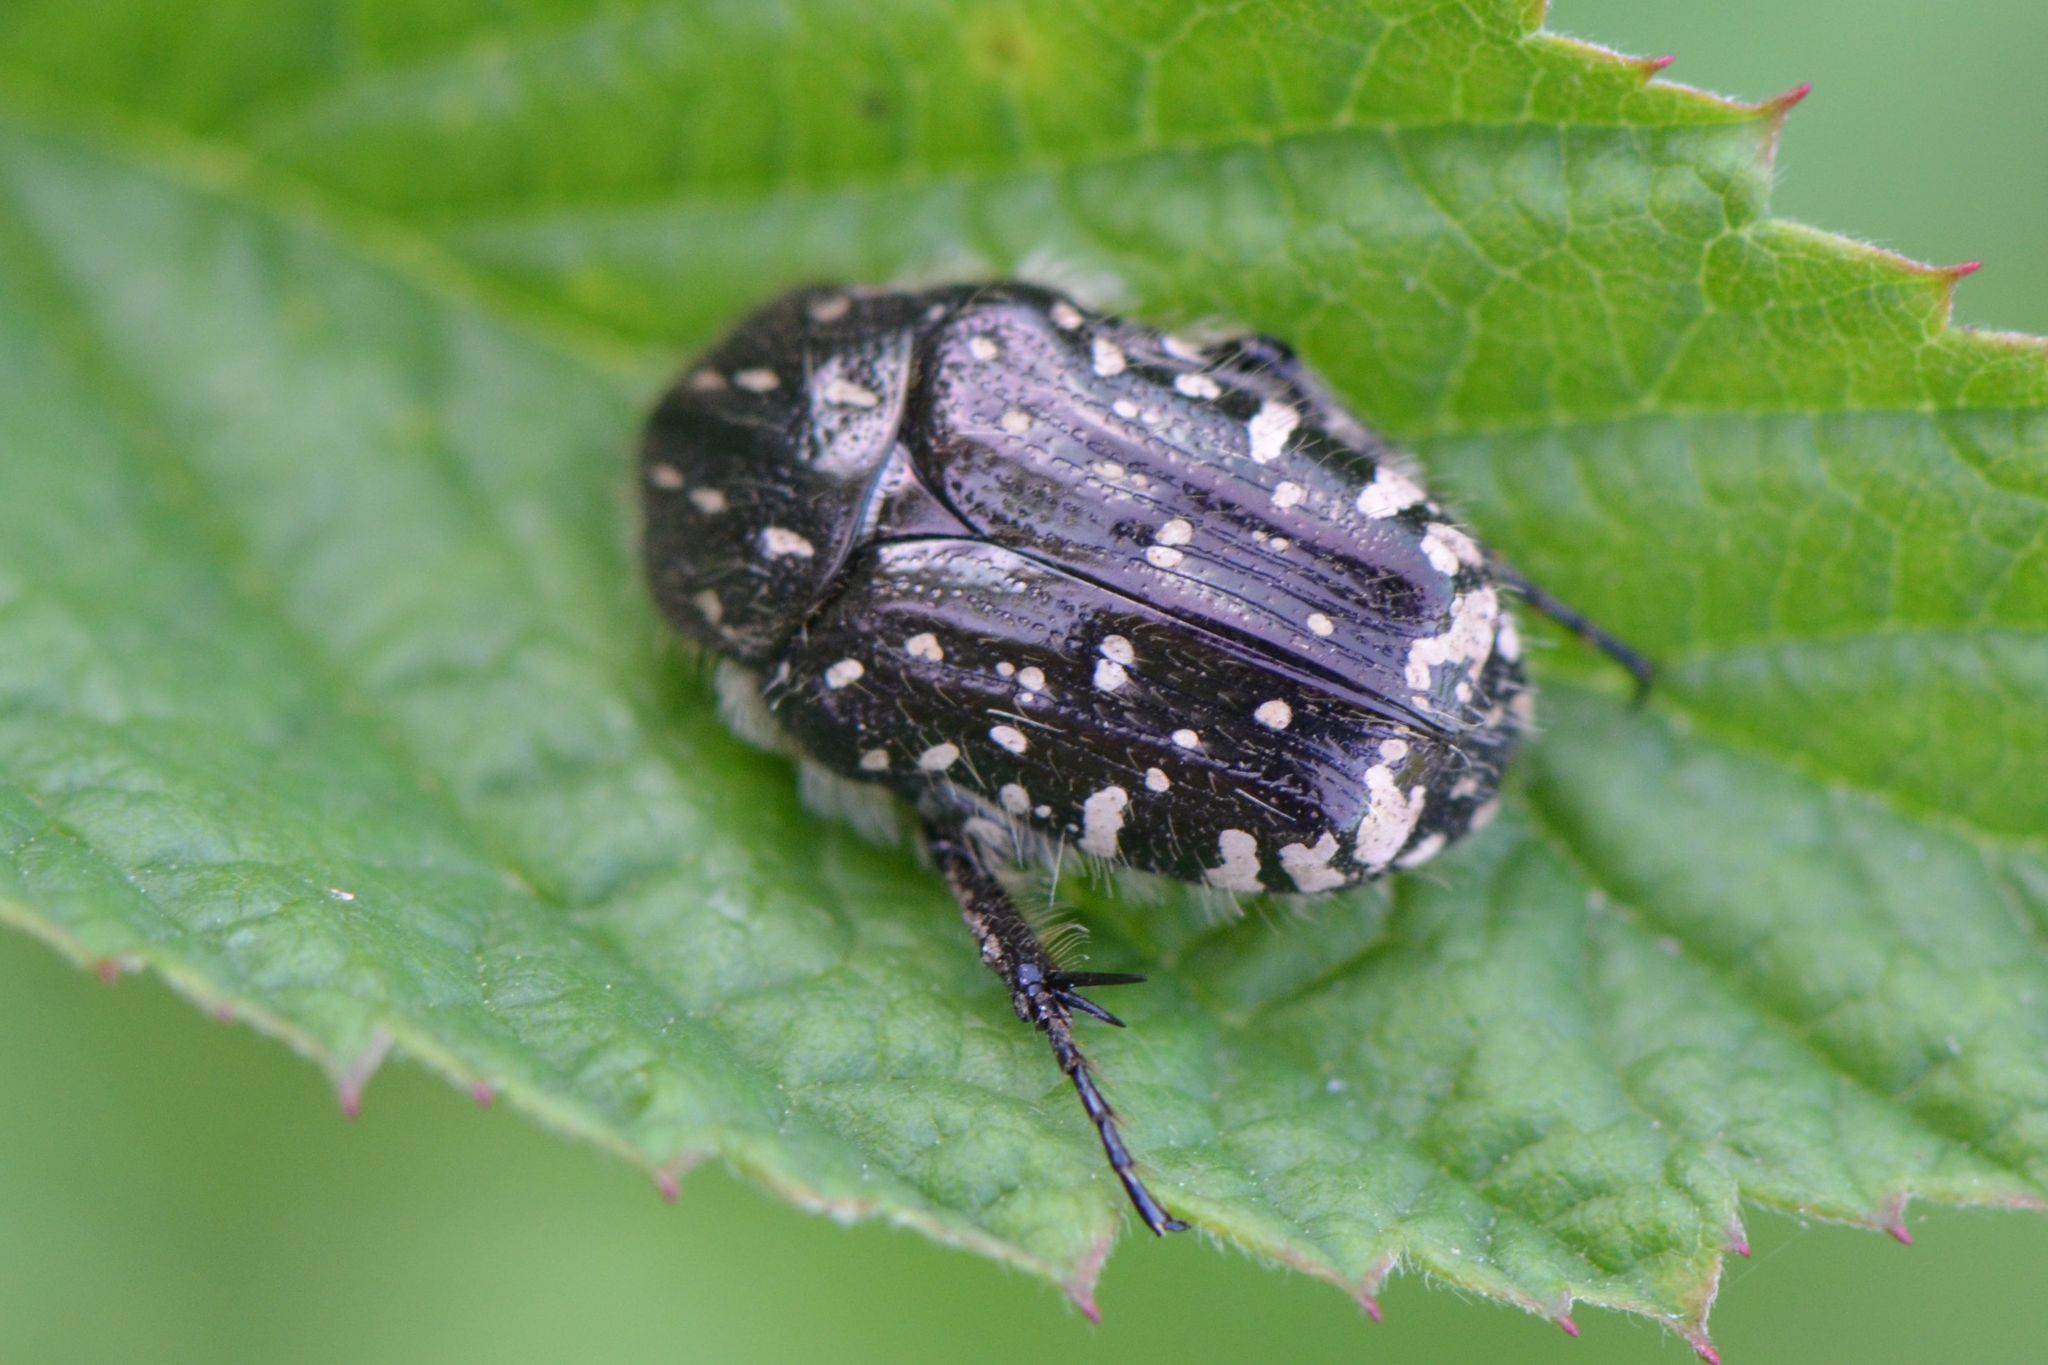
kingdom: Animalia
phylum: Arthropoda
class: Insecta
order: Coleoptera
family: Scarabaeidae
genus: Oxythyrea
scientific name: Oxythyrea funesta
